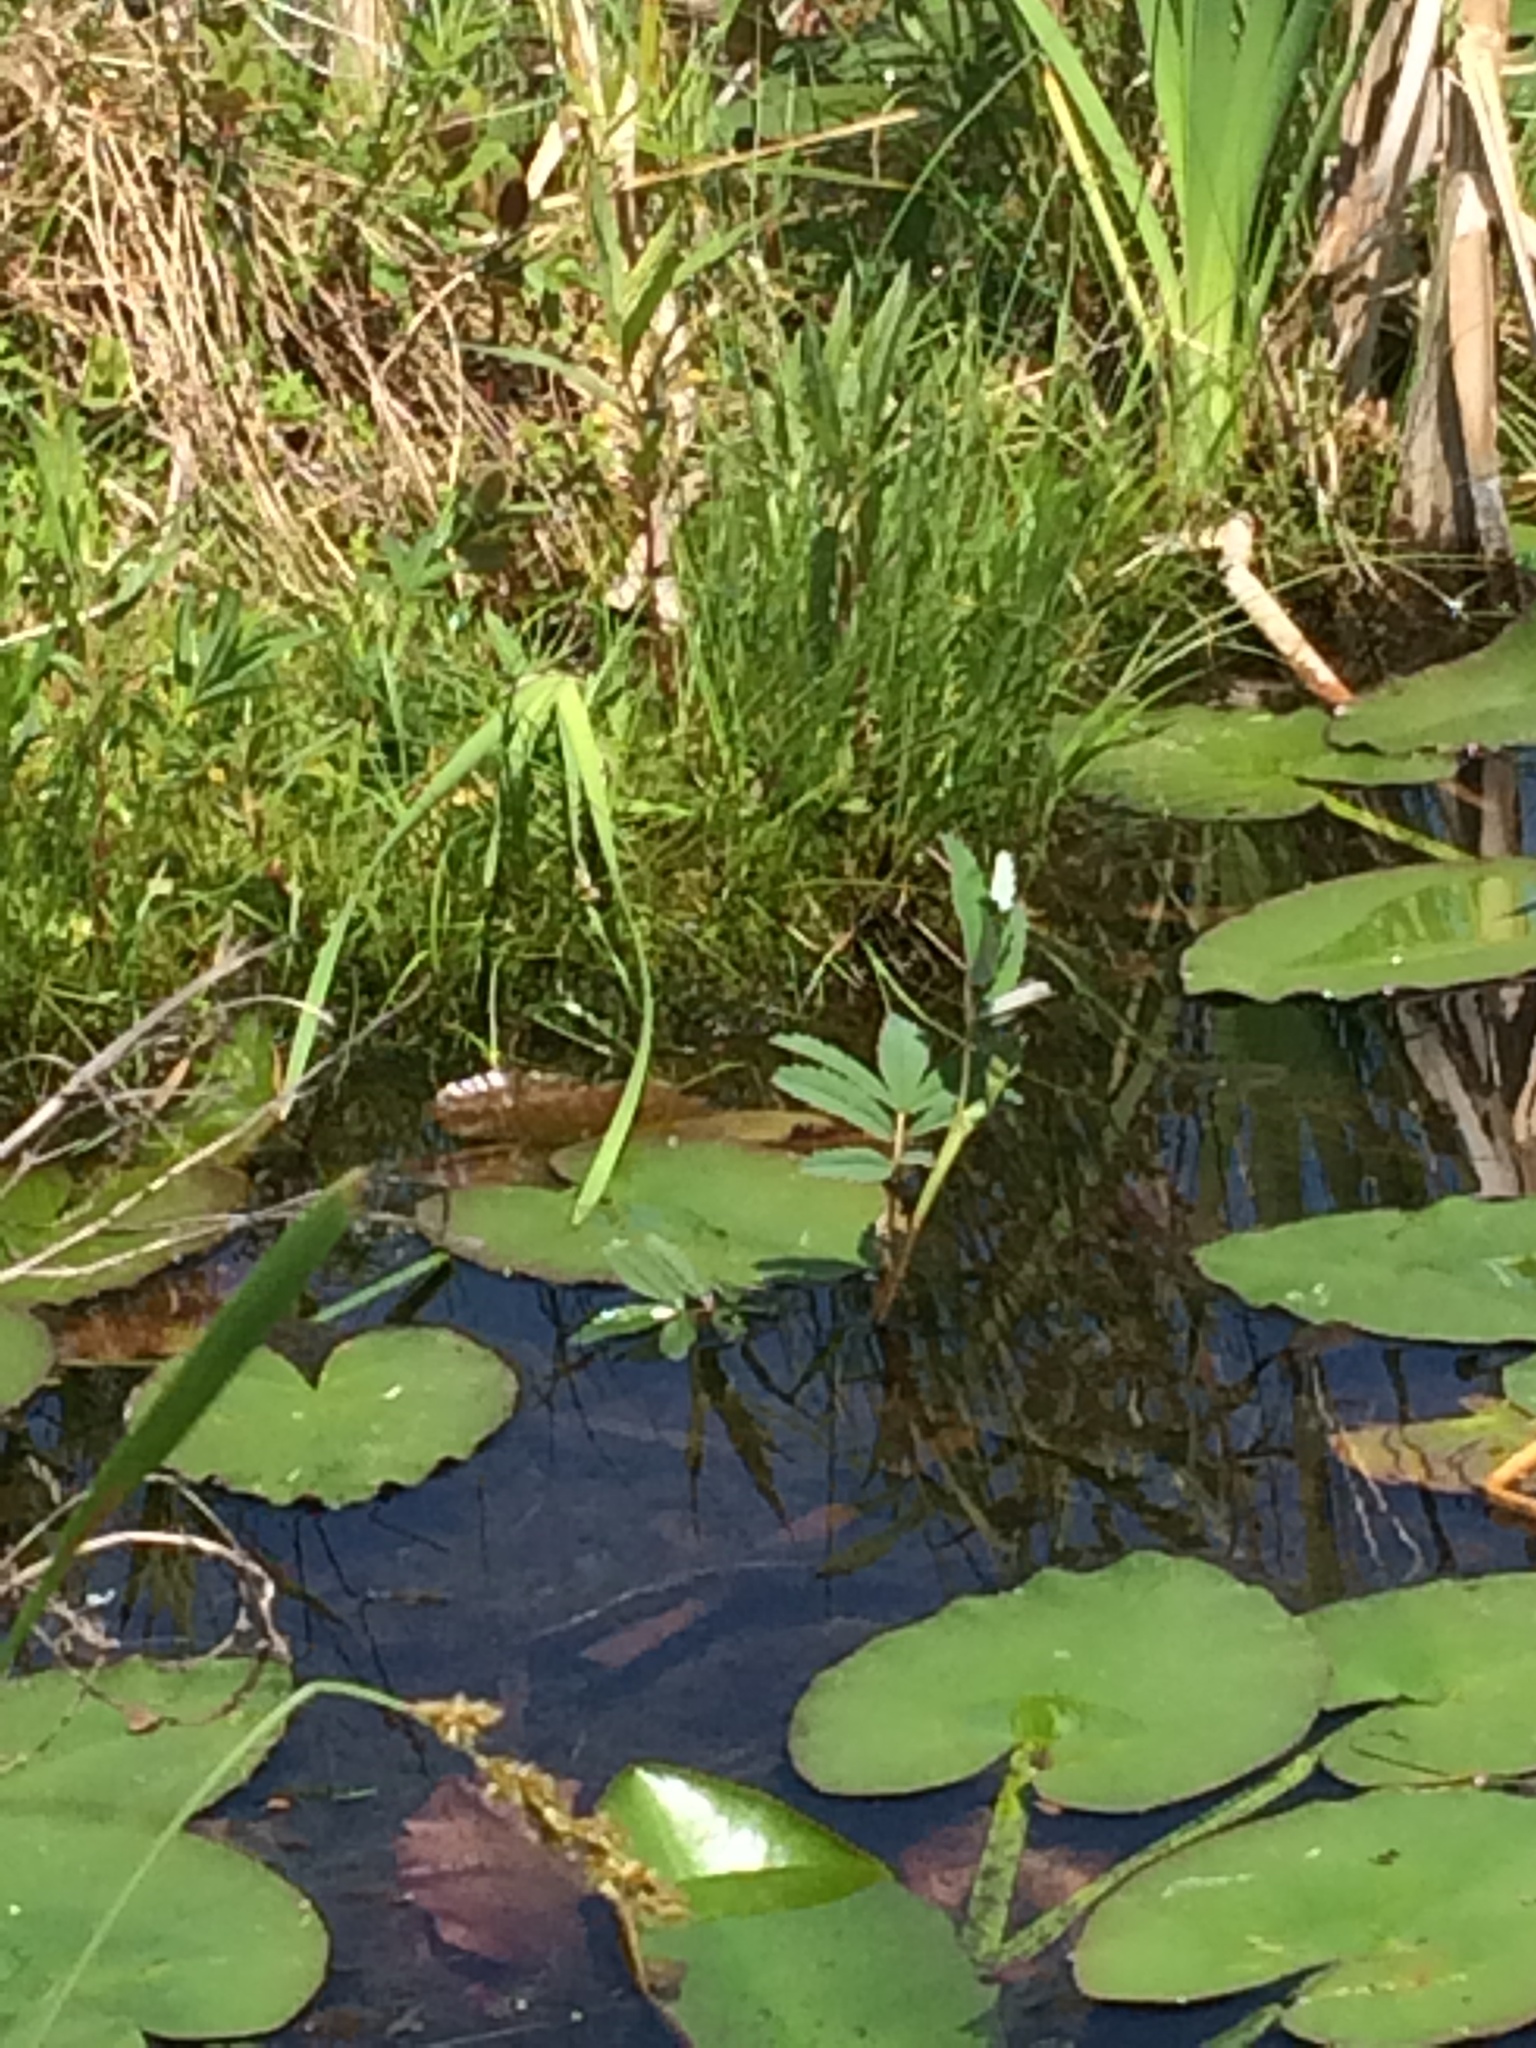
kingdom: Plantae
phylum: Tracheophyta
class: Magnoliopsida
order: Rosales
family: Rosaceae
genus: Comarum
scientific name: Comarum palustre
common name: Marsh cinquefoil
